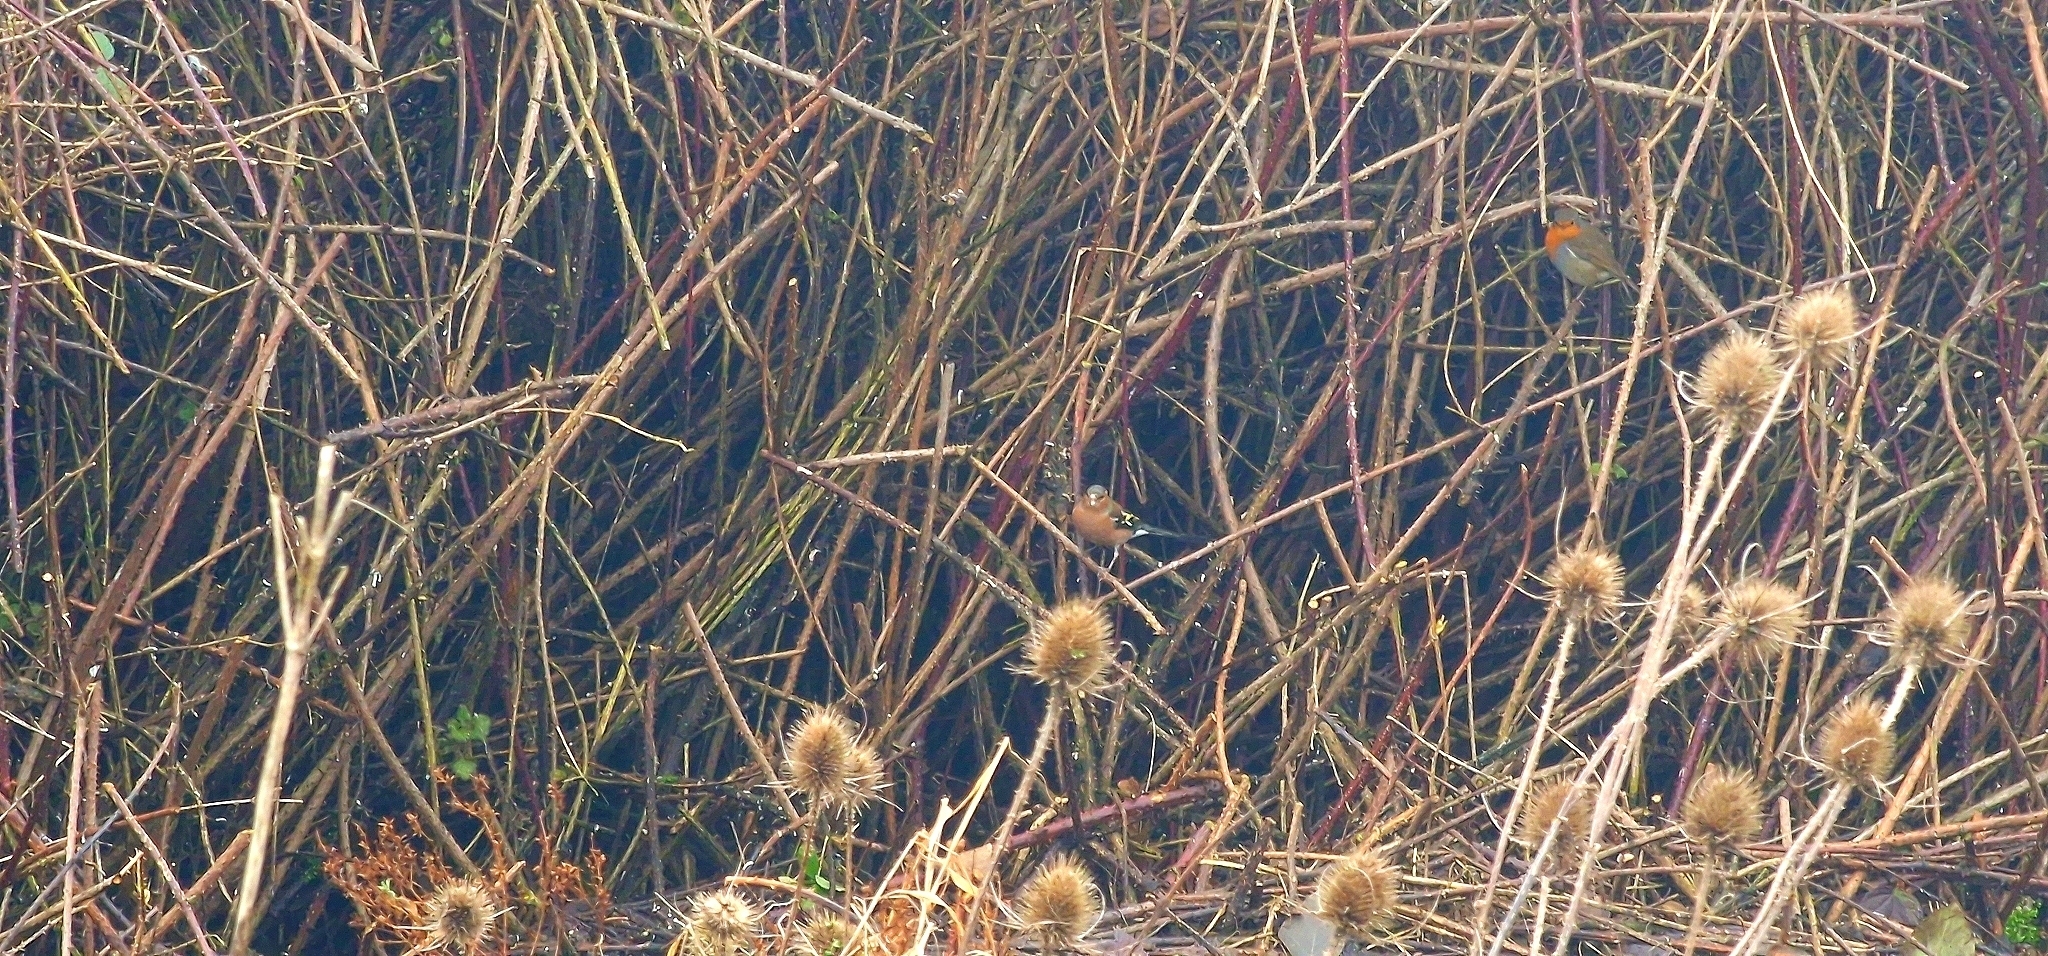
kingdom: Animalia
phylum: Chordata
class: Aves
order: Passeriformes
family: Fringillidae
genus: Fringilla
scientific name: Fringilla coelebs
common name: Common chaffinch
